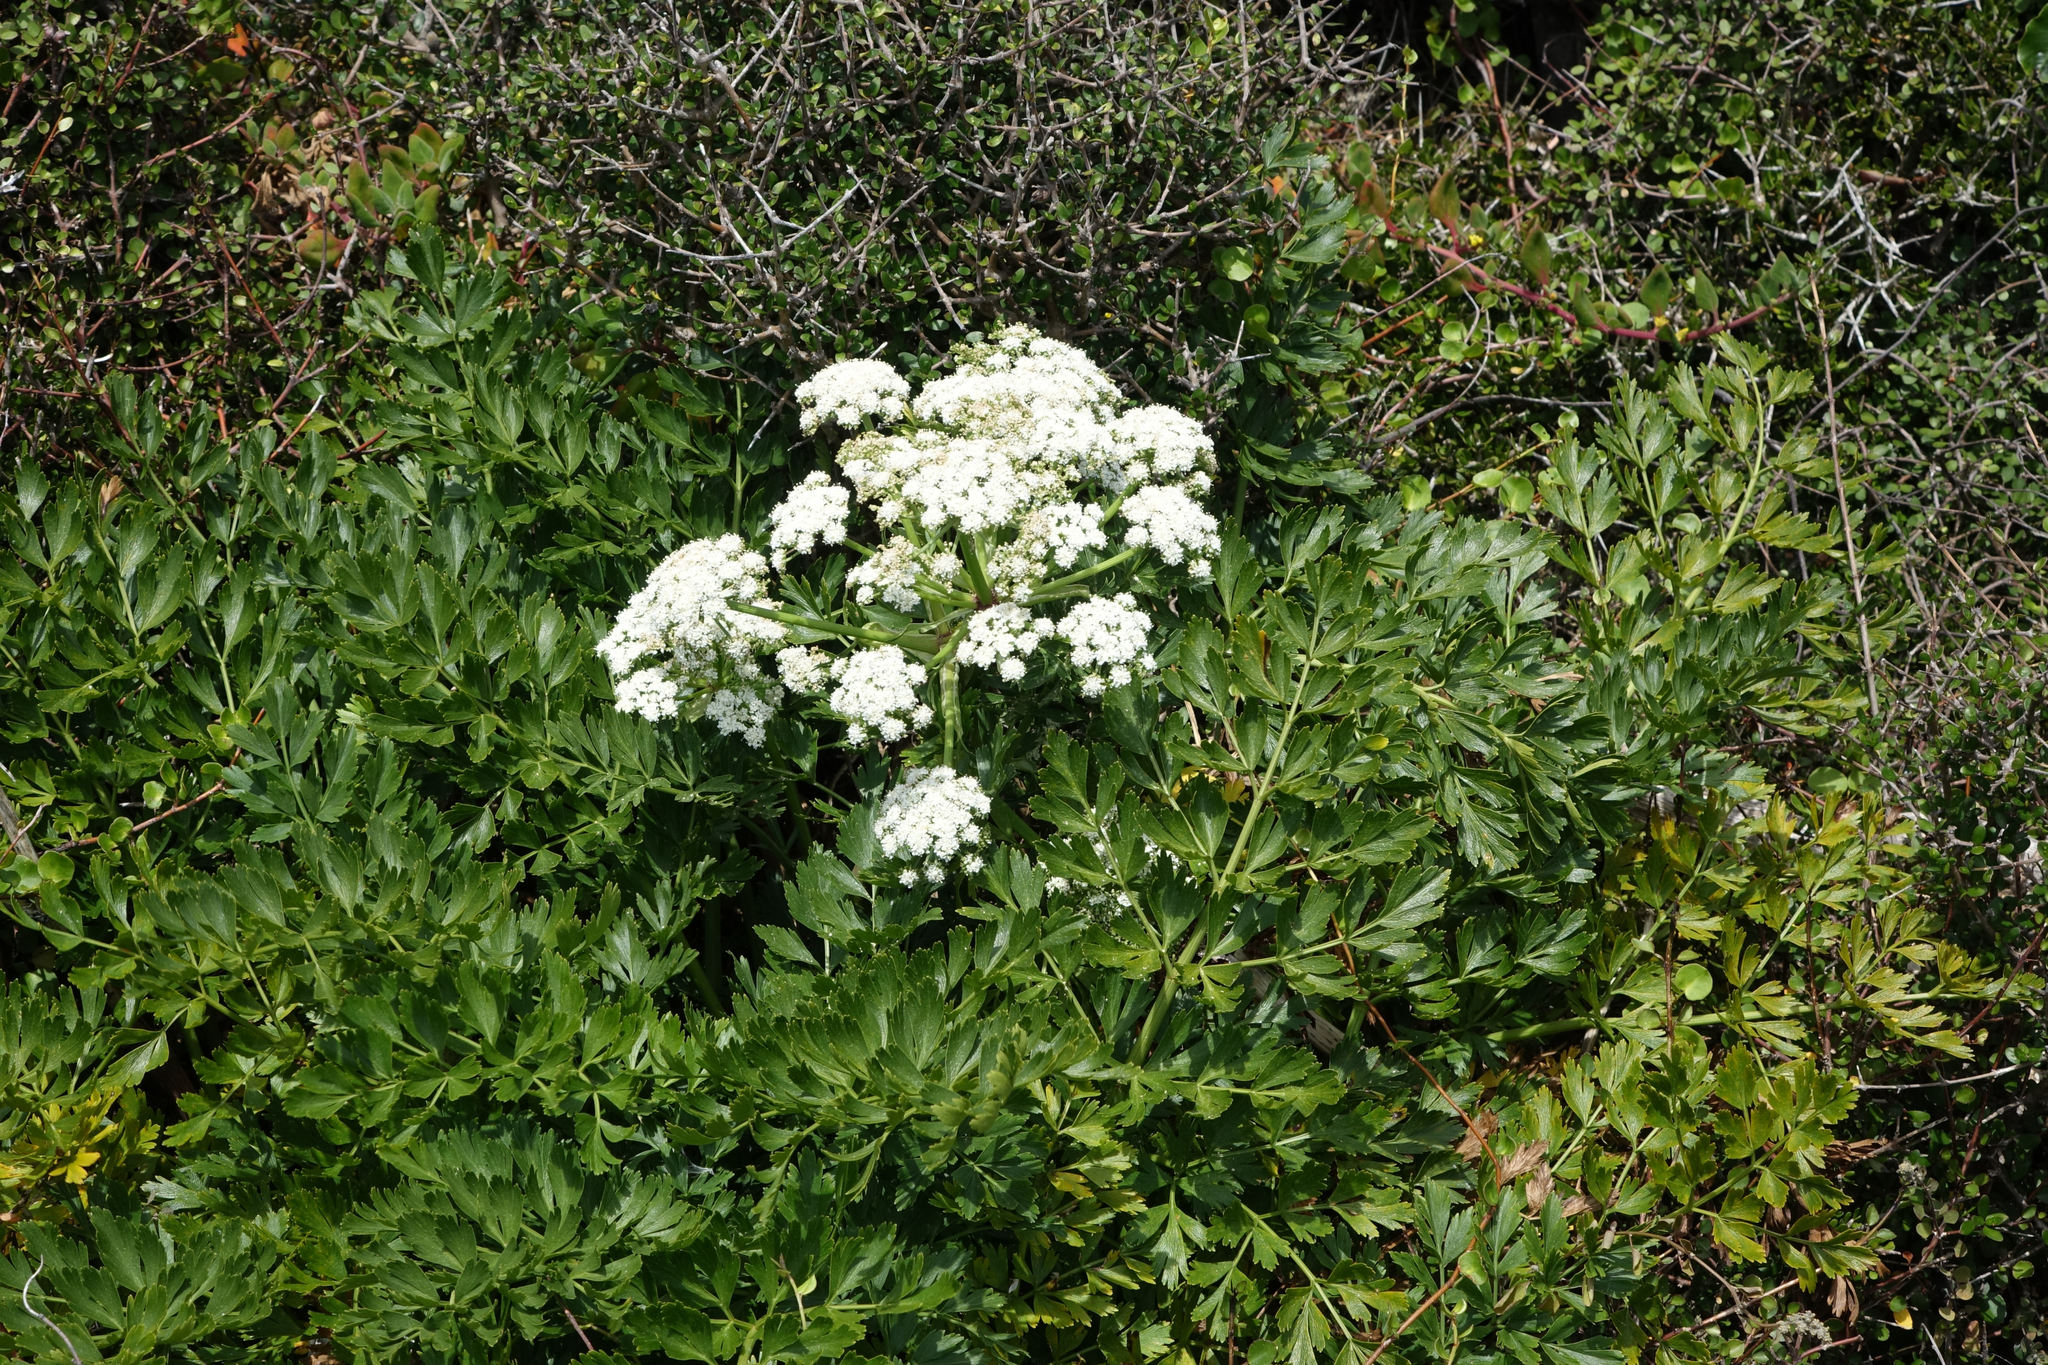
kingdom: Plantae
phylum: Tracheophyta
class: Magnoliopsida
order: Apiales
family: Apiaceae
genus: Anisotome
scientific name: Anisotome lyallii
